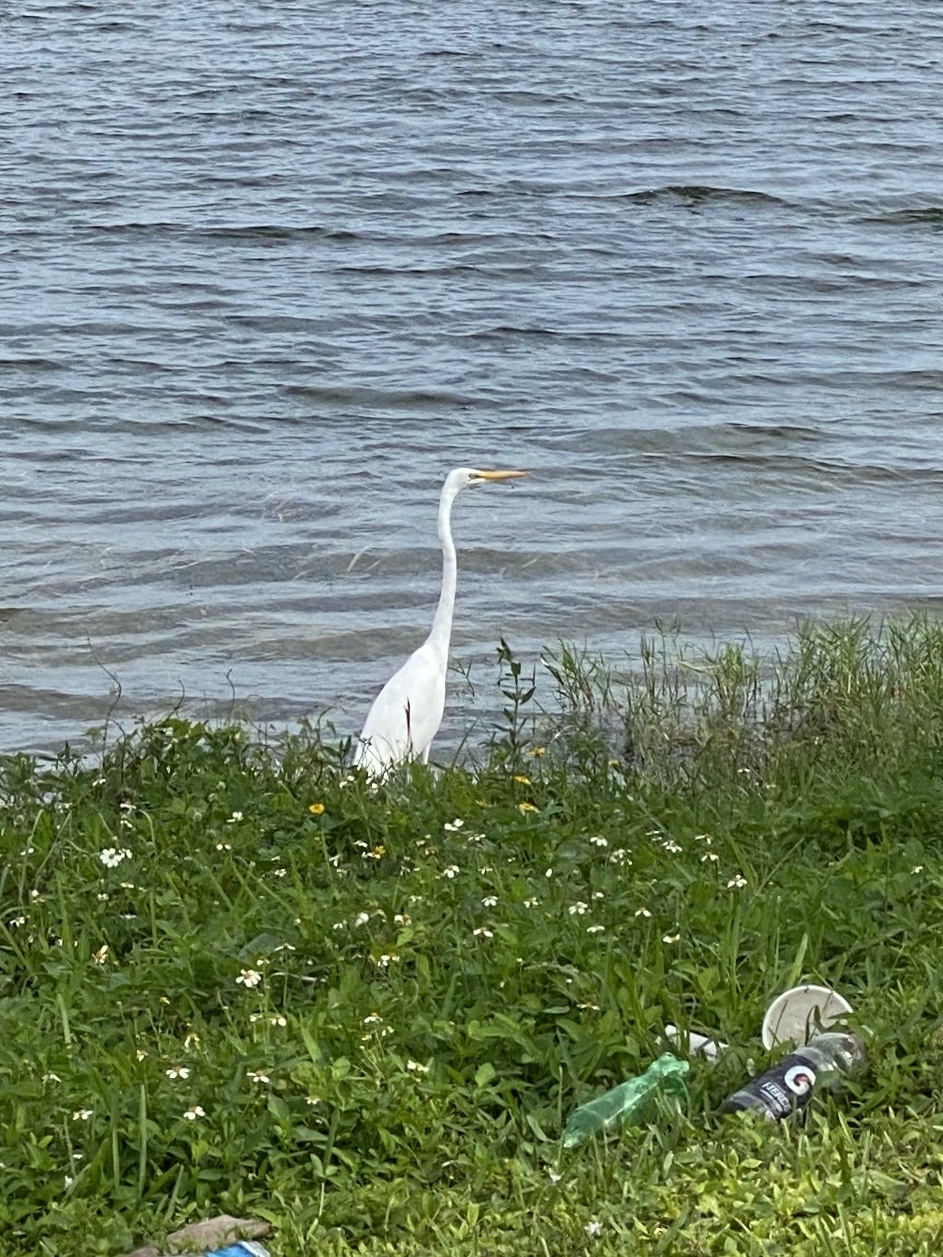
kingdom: Animalia
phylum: Chordata
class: Aves
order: Pelecaniformes
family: Ardeidae
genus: Ardea
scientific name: Ardea alba
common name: Great egret
